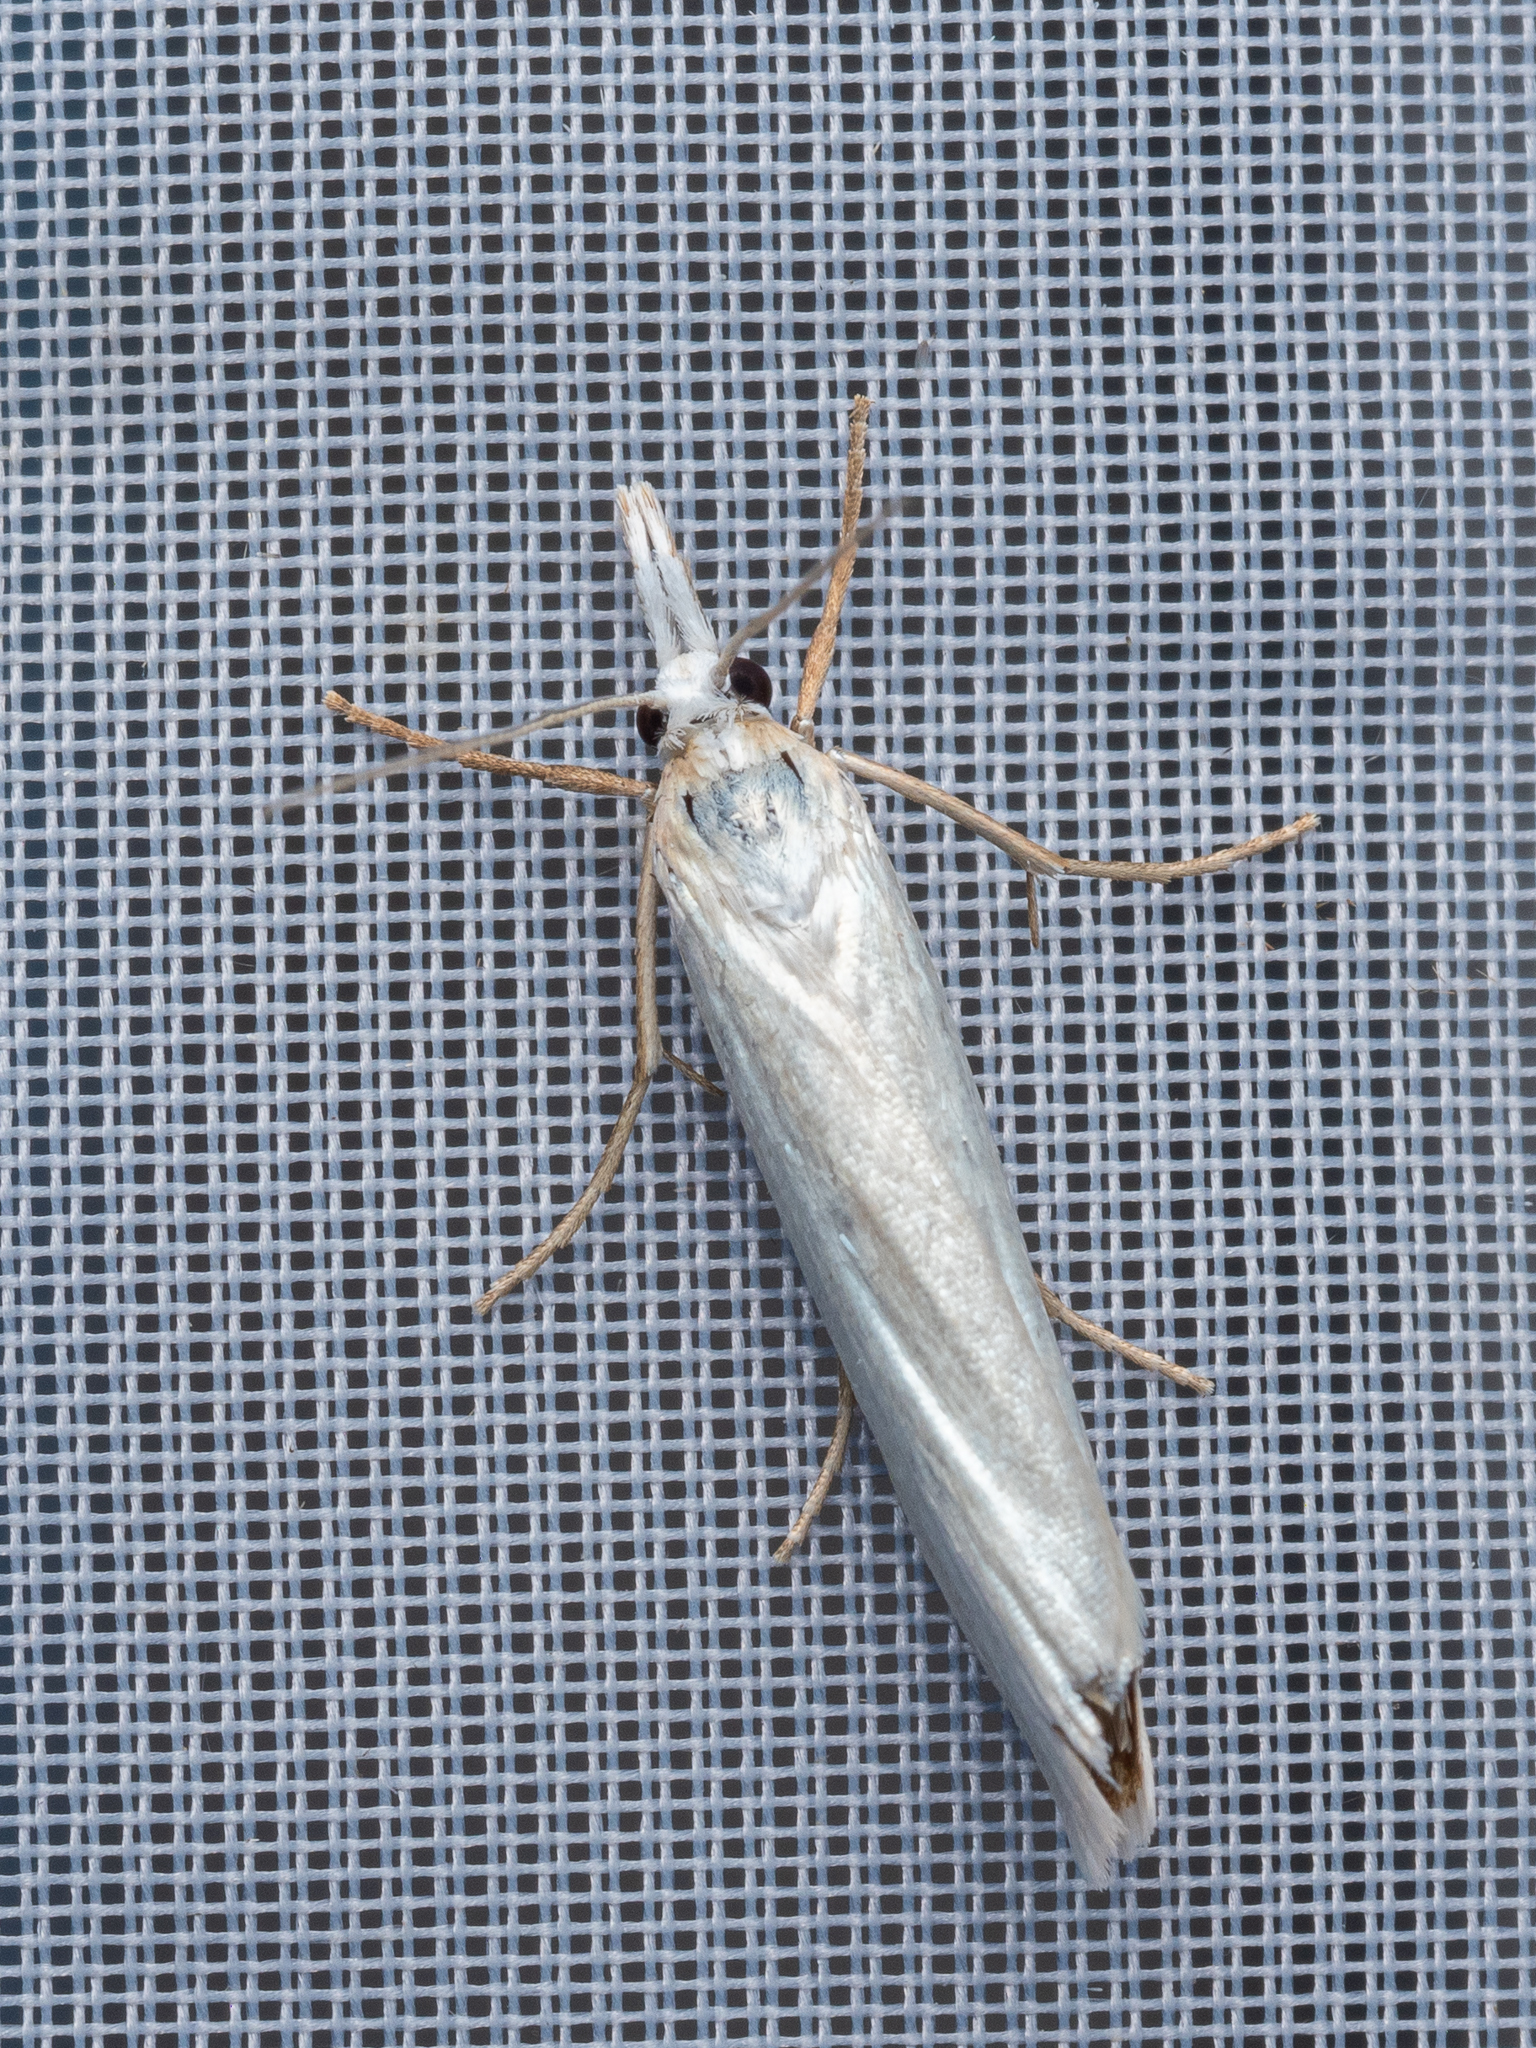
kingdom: Animalia
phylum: Arthropoda
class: Insecta
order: Lepidoptera
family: Crambidae
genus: Crambus
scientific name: Crambus perlellus
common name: Yellow satin veneer
